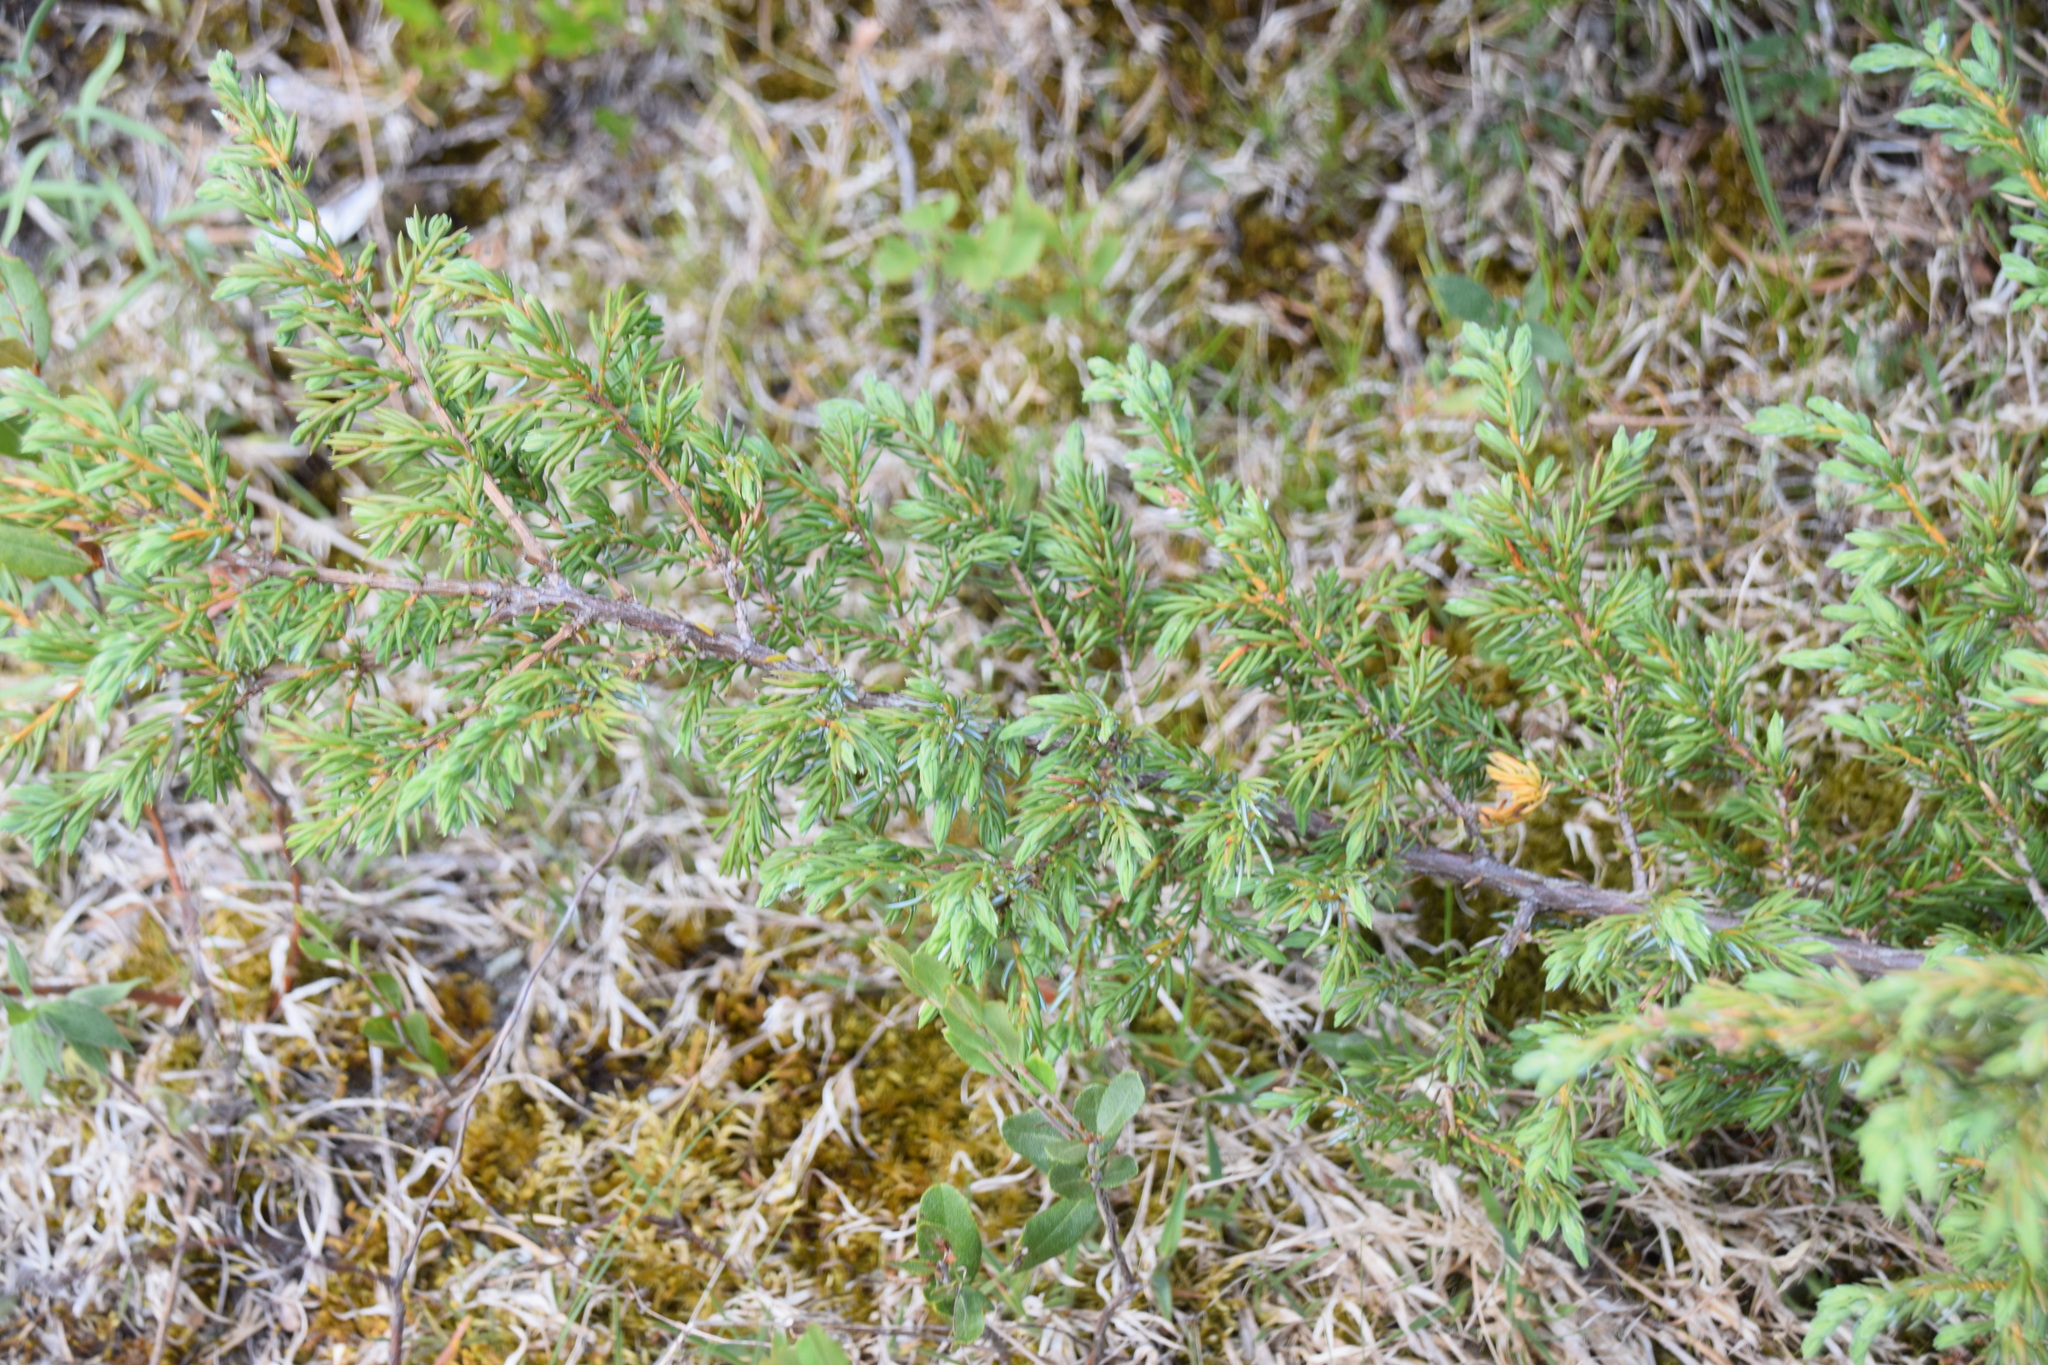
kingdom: Plantae
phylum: Tracheophyta
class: Pinopsida
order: Pinales
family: Cupressaceae
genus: Juniperus
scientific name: Juniperus communis
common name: Common juniper
